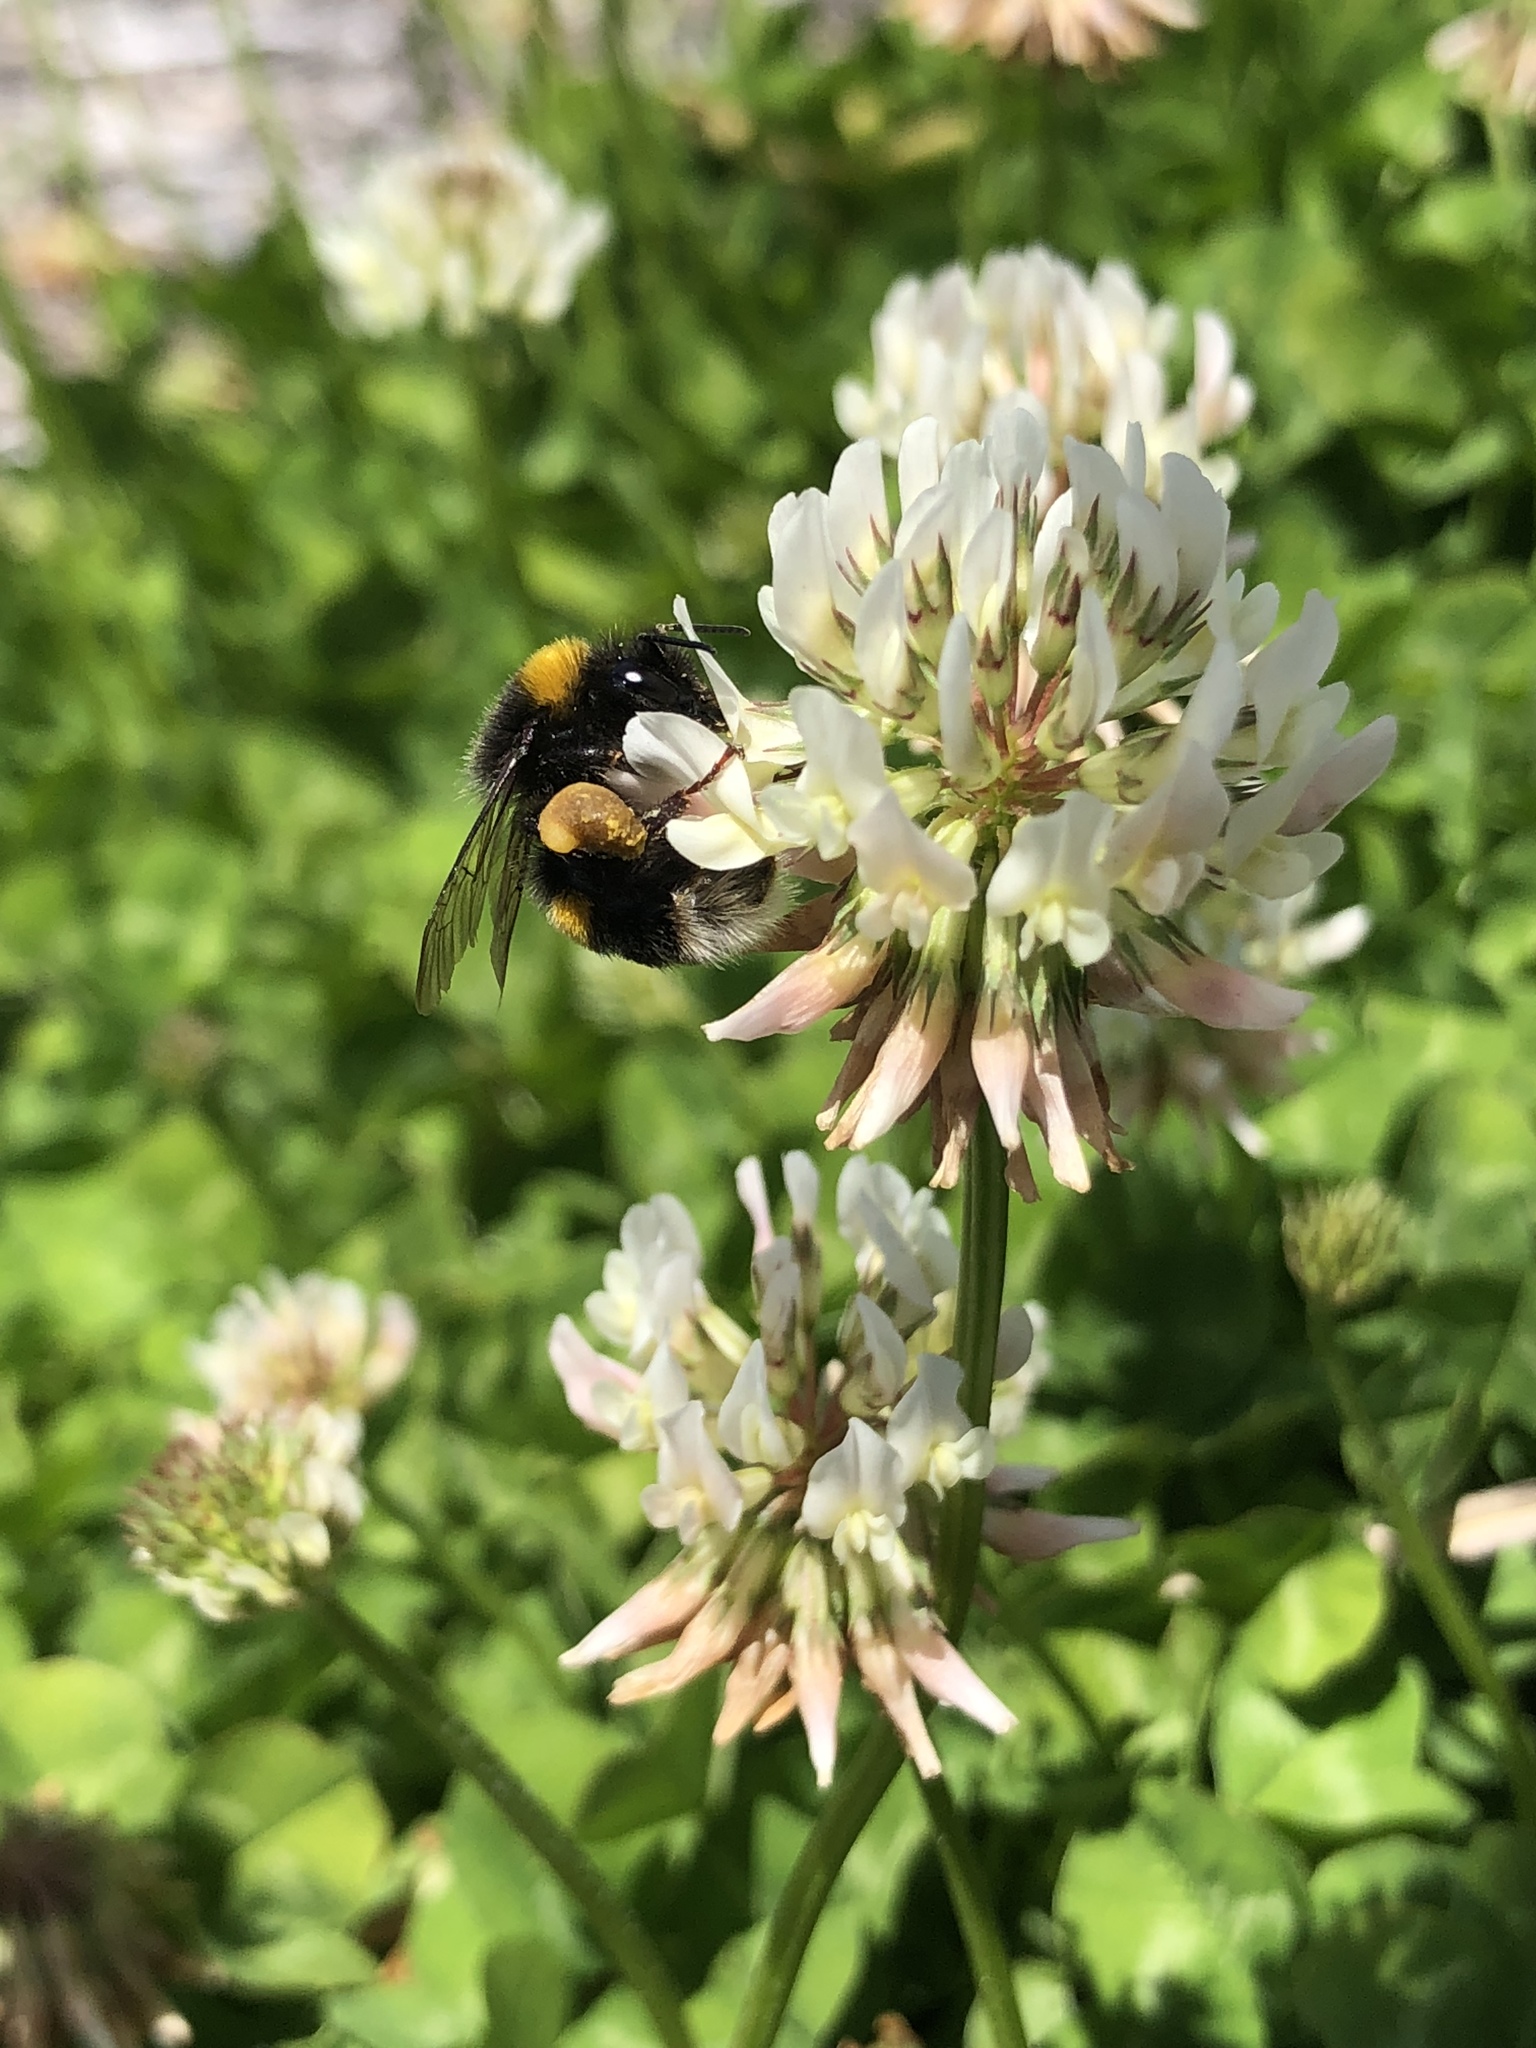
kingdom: Plantae
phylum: Tracheophyta
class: Magnoliopsida
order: Fabales
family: Fabaceae
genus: Trifolium
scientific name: Trifolium repens
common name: White clover
